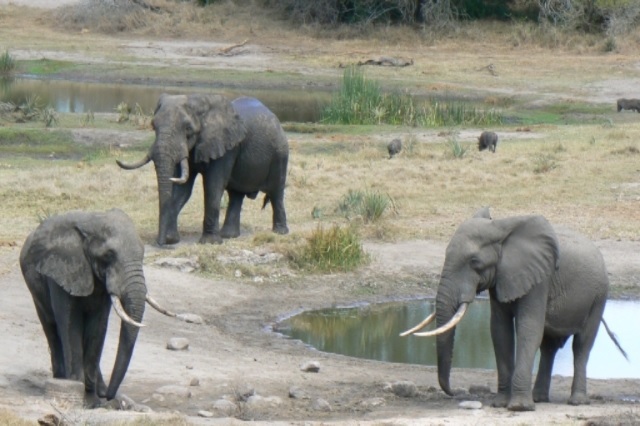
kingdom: Animalia
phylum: Chordata
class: Mammalia
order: Proboscidea
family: Elephantidae
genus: Loxodonta
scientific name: Loxodonta africana
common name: African elephant
